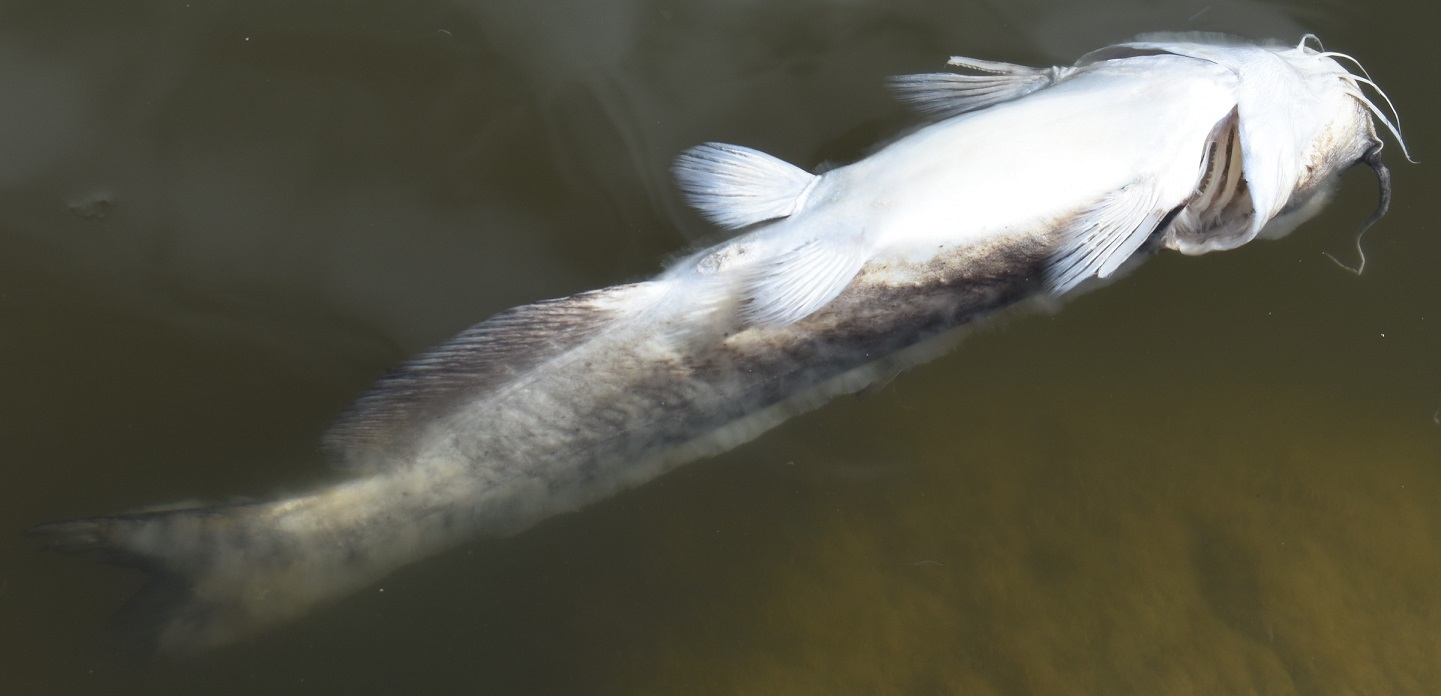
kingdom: Animalia
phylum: Chordata
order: Siluriformes
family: Ictaluridae
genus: Ictalurus
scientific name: Ictalurus punctatus
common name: Channel catfish
